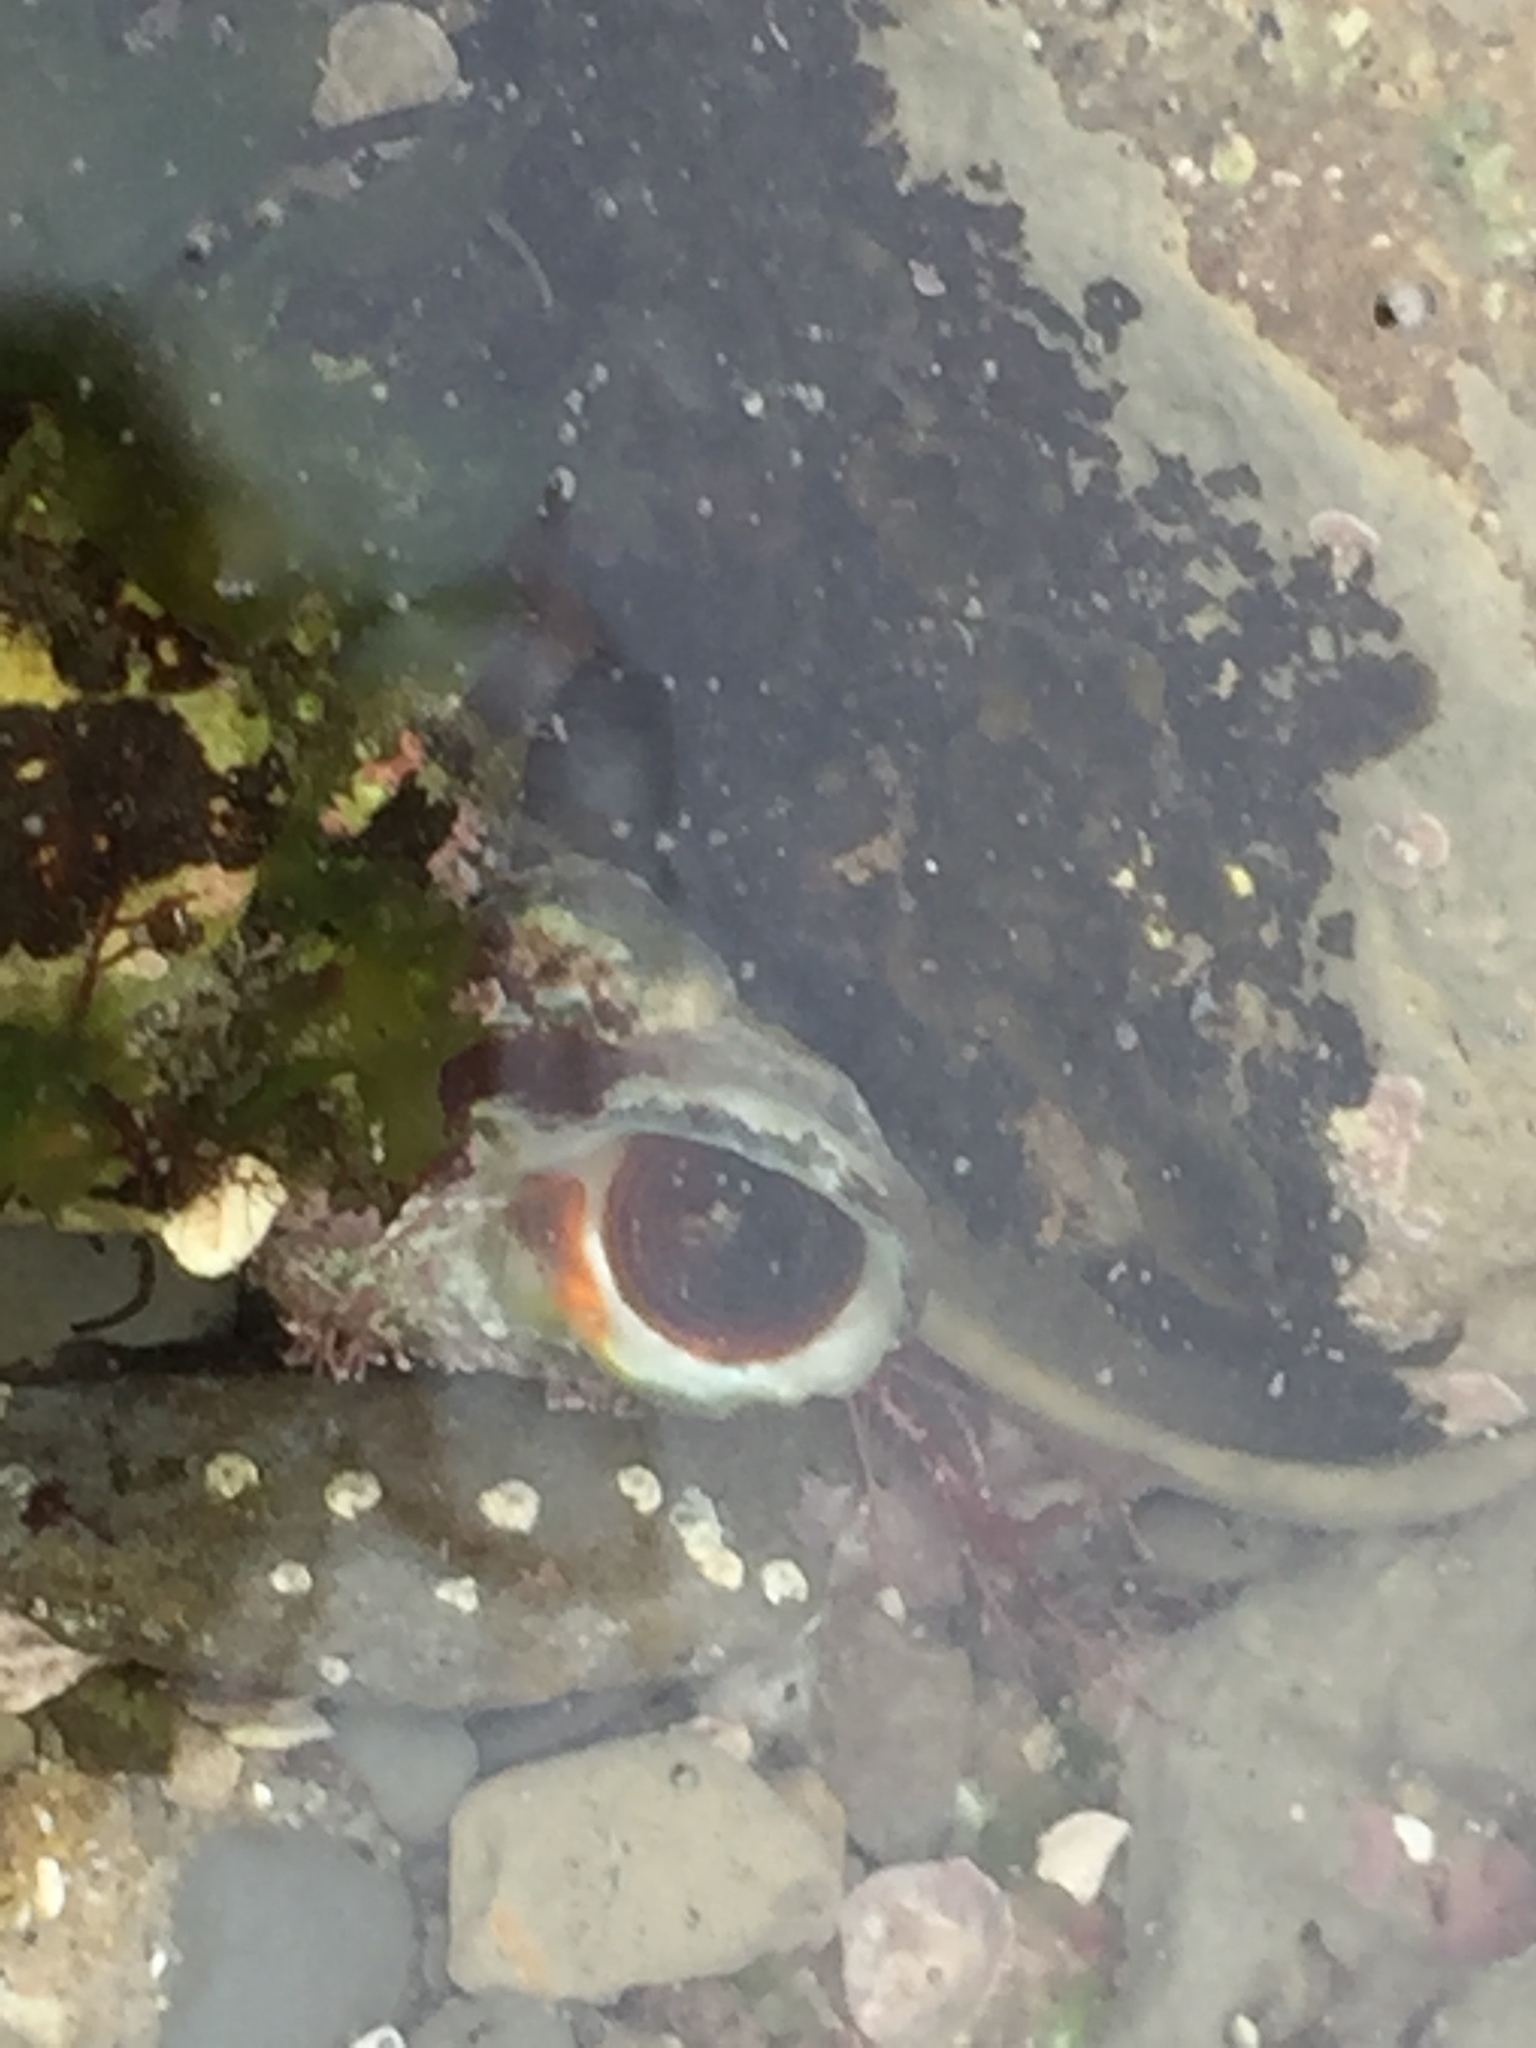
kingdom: Animalia
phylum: Mollusca
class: Gastropoda
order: Trochida
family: Tegulidae
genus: Tegula
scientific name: Tegula aureotincta
